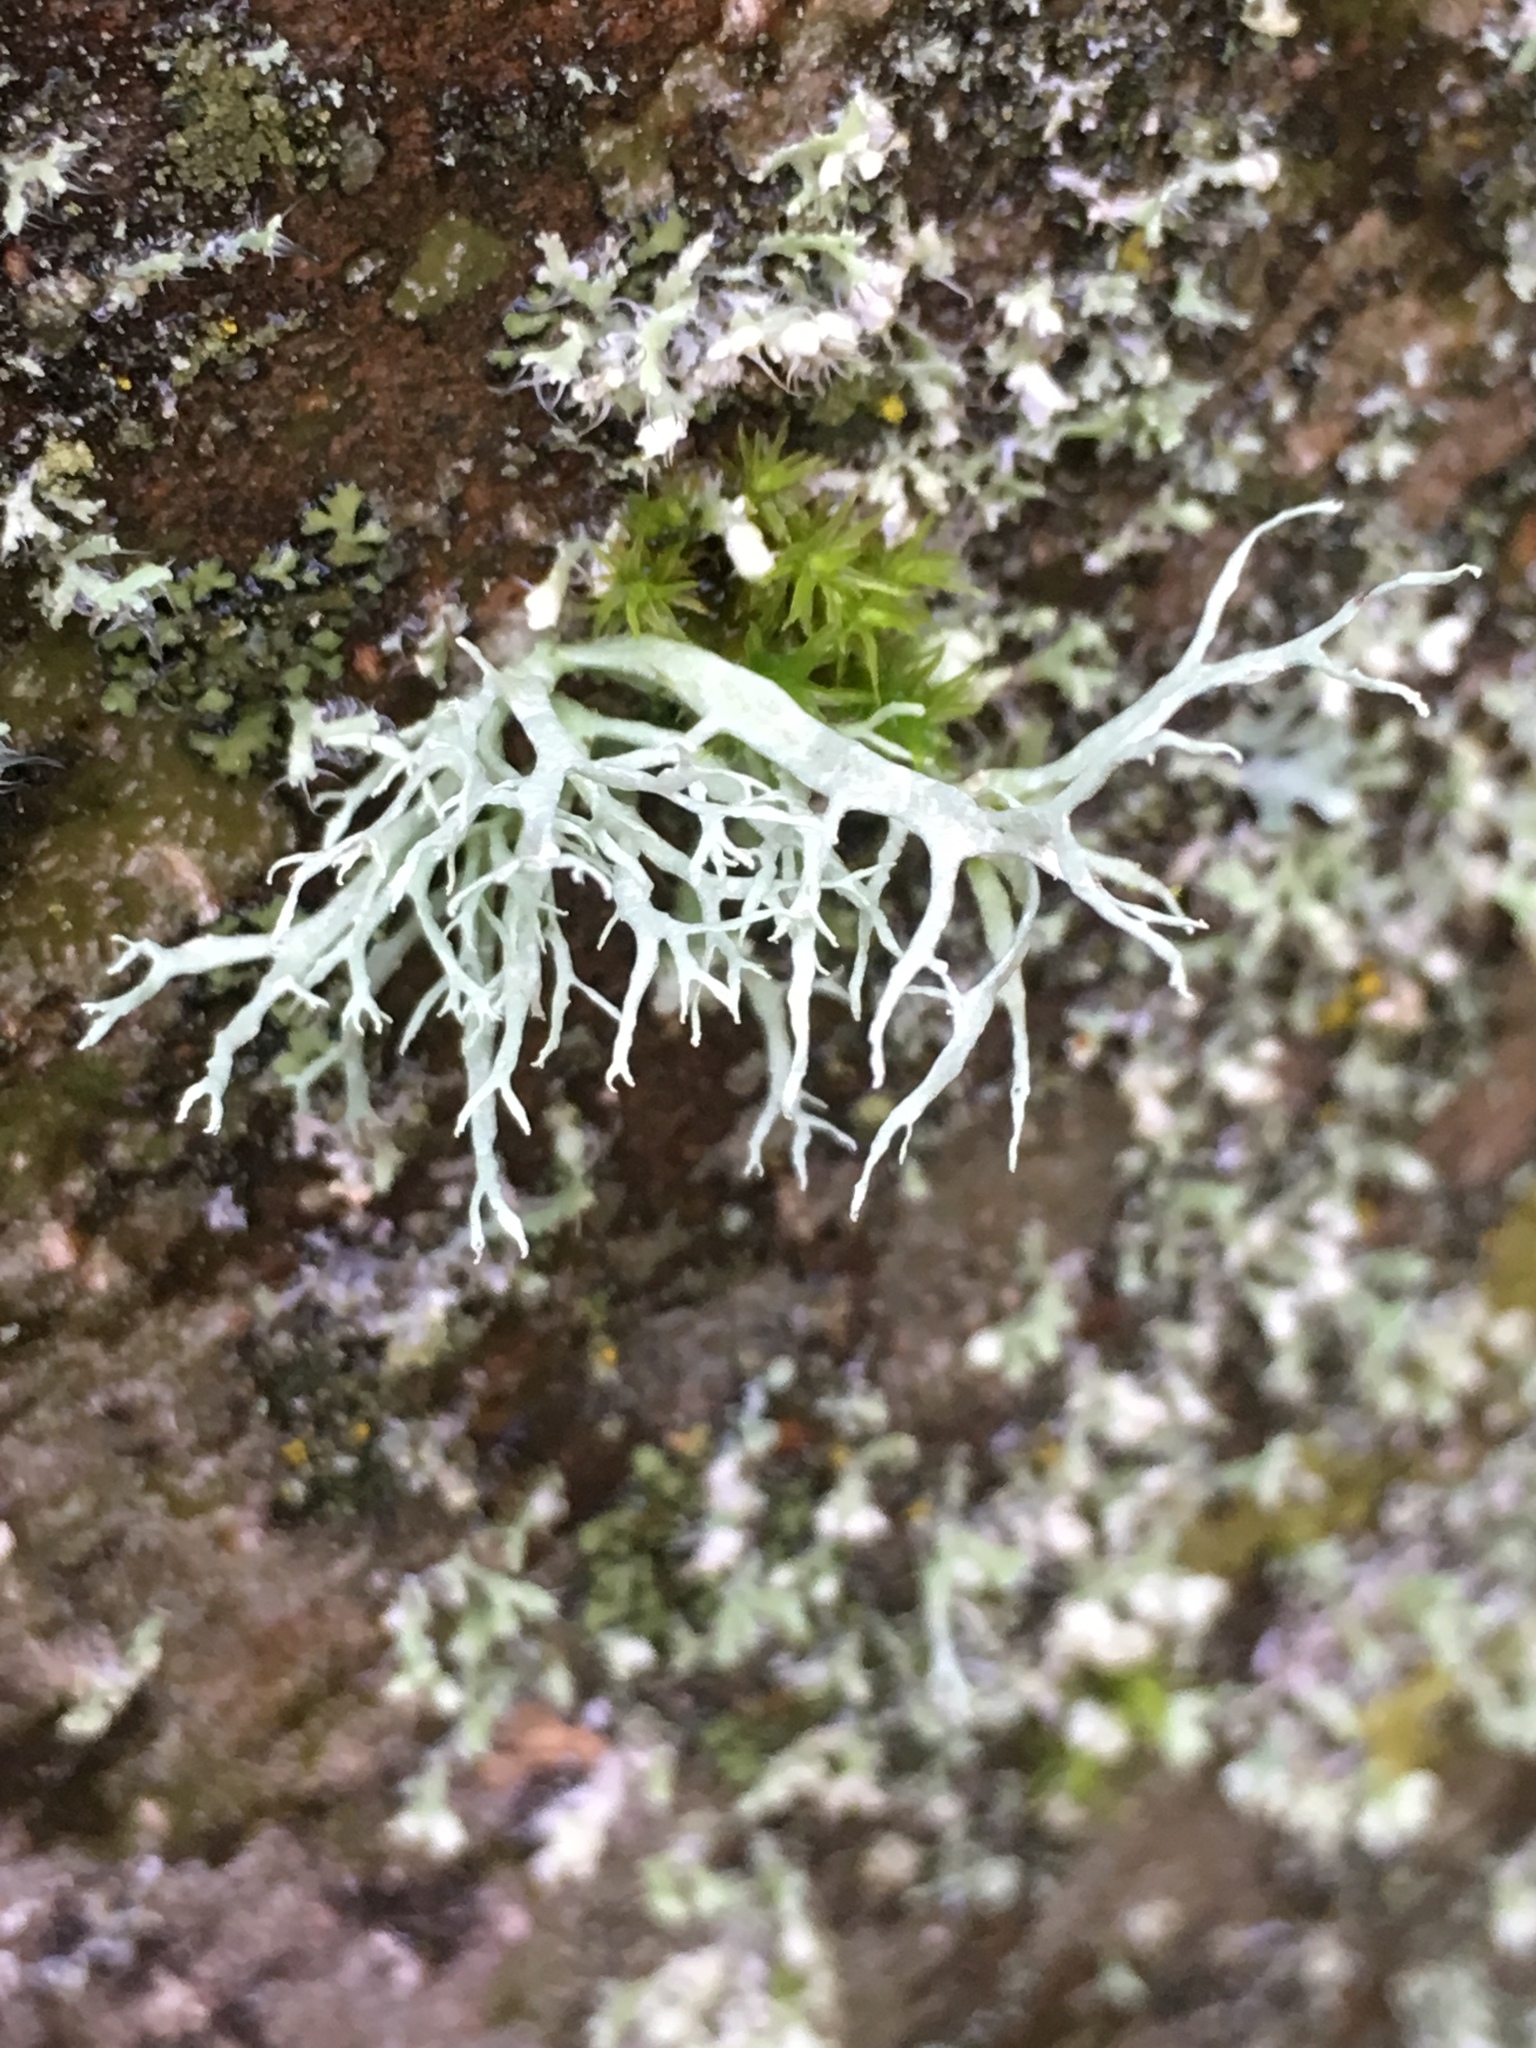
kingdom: Fungi
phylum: Ascomycota
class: Lecanoromycetes
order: Lecanorales
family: Parmeliaceae
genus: Evernia
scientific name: Evernia prunastri
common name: Oak moss
